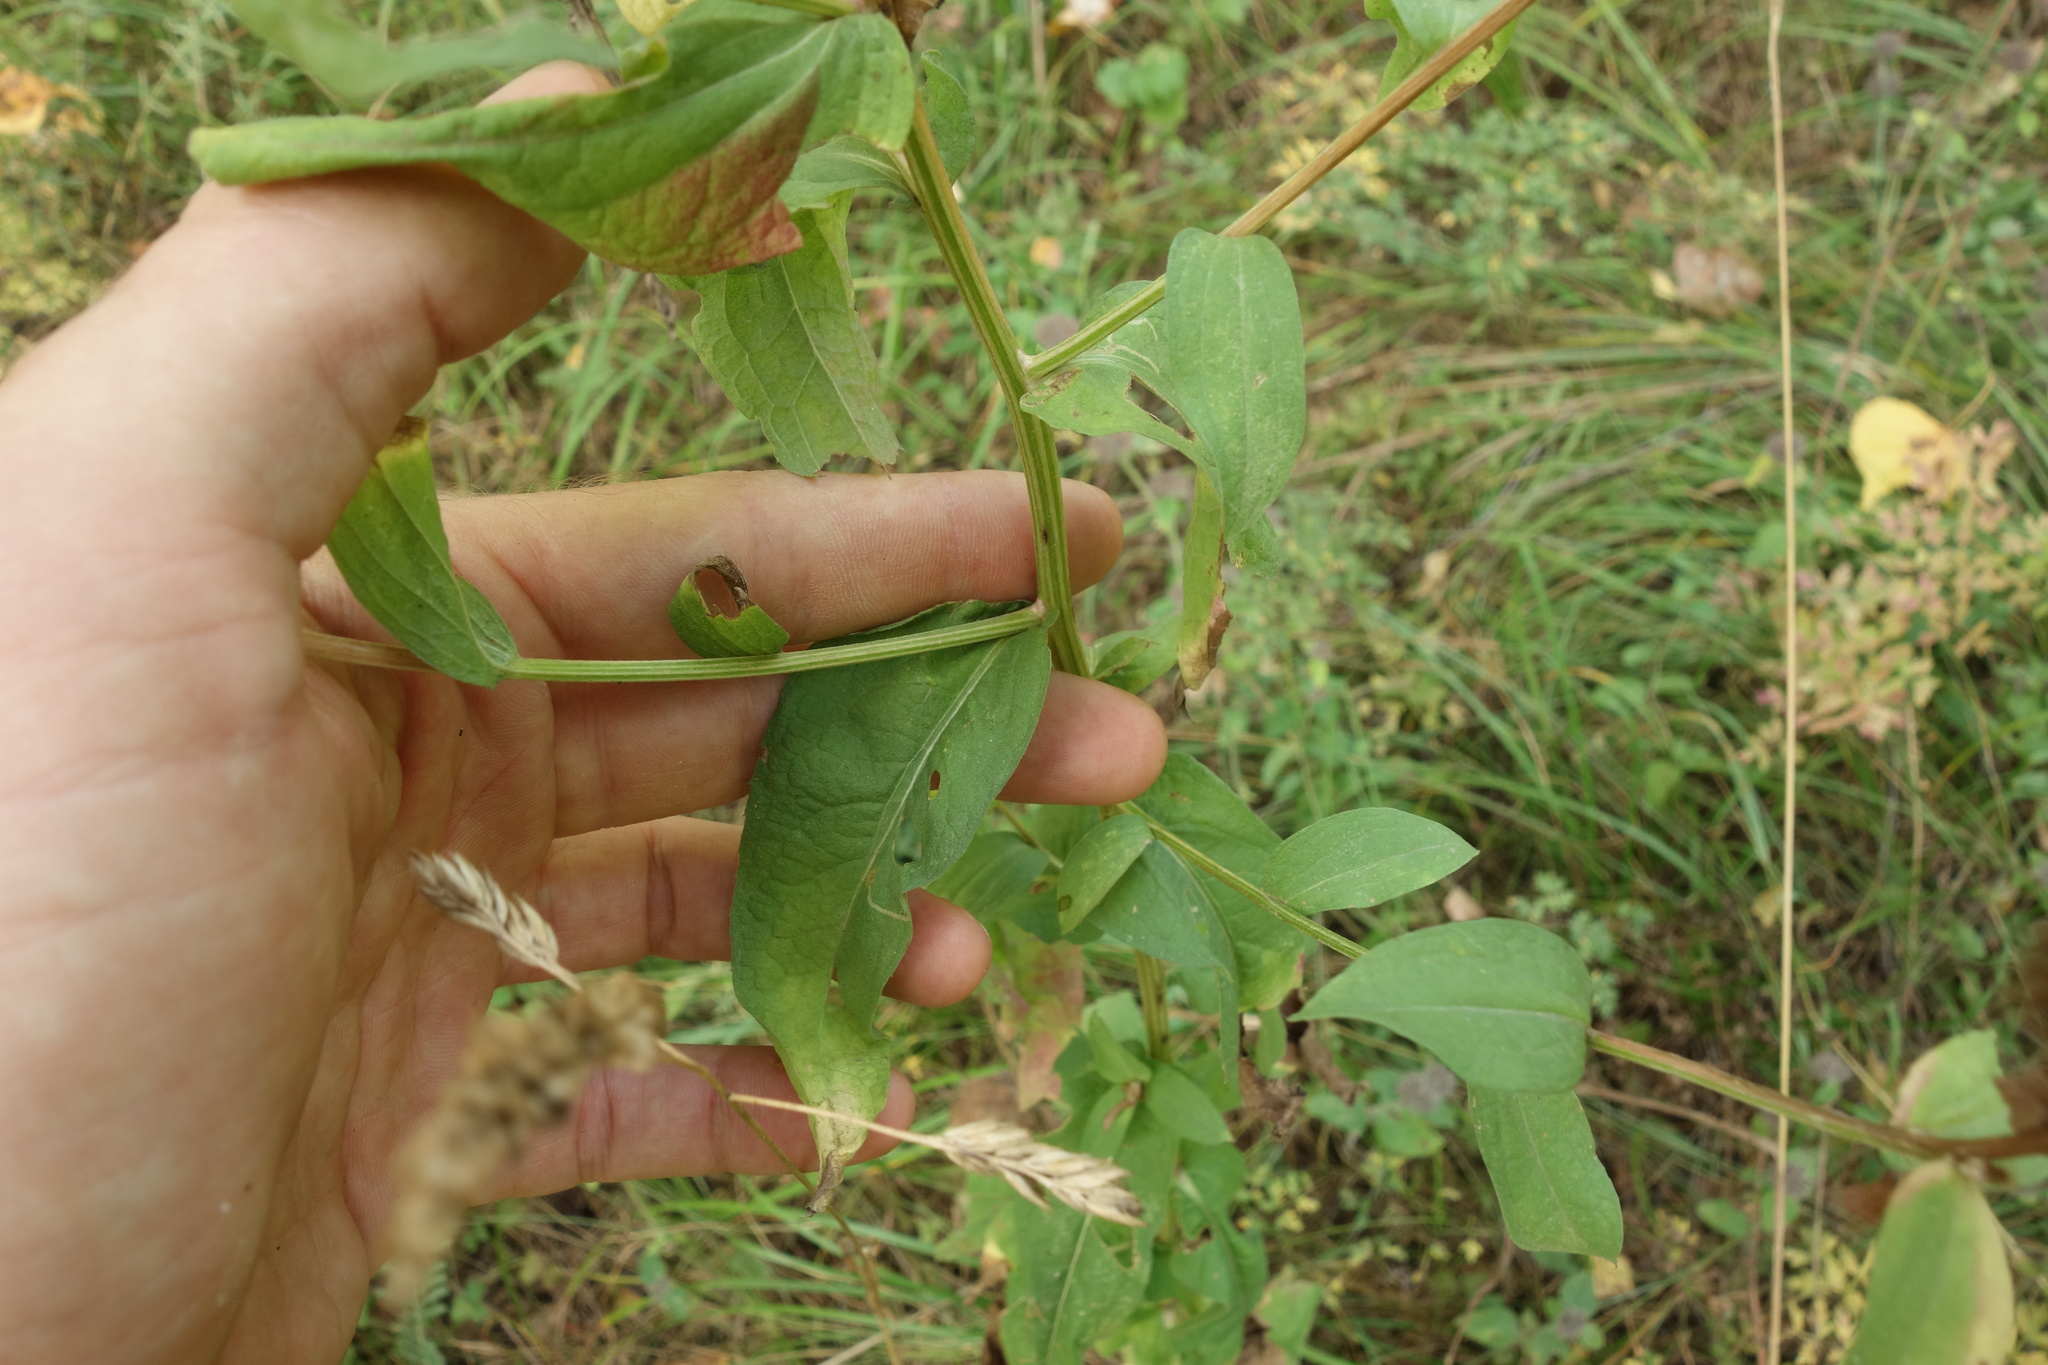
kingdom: Plantae
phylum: Tracheophyta
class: Magnoliopsida
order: Asterales
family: Asteraceae
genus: Centaurea
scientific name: Centaurea pseudophrygia
